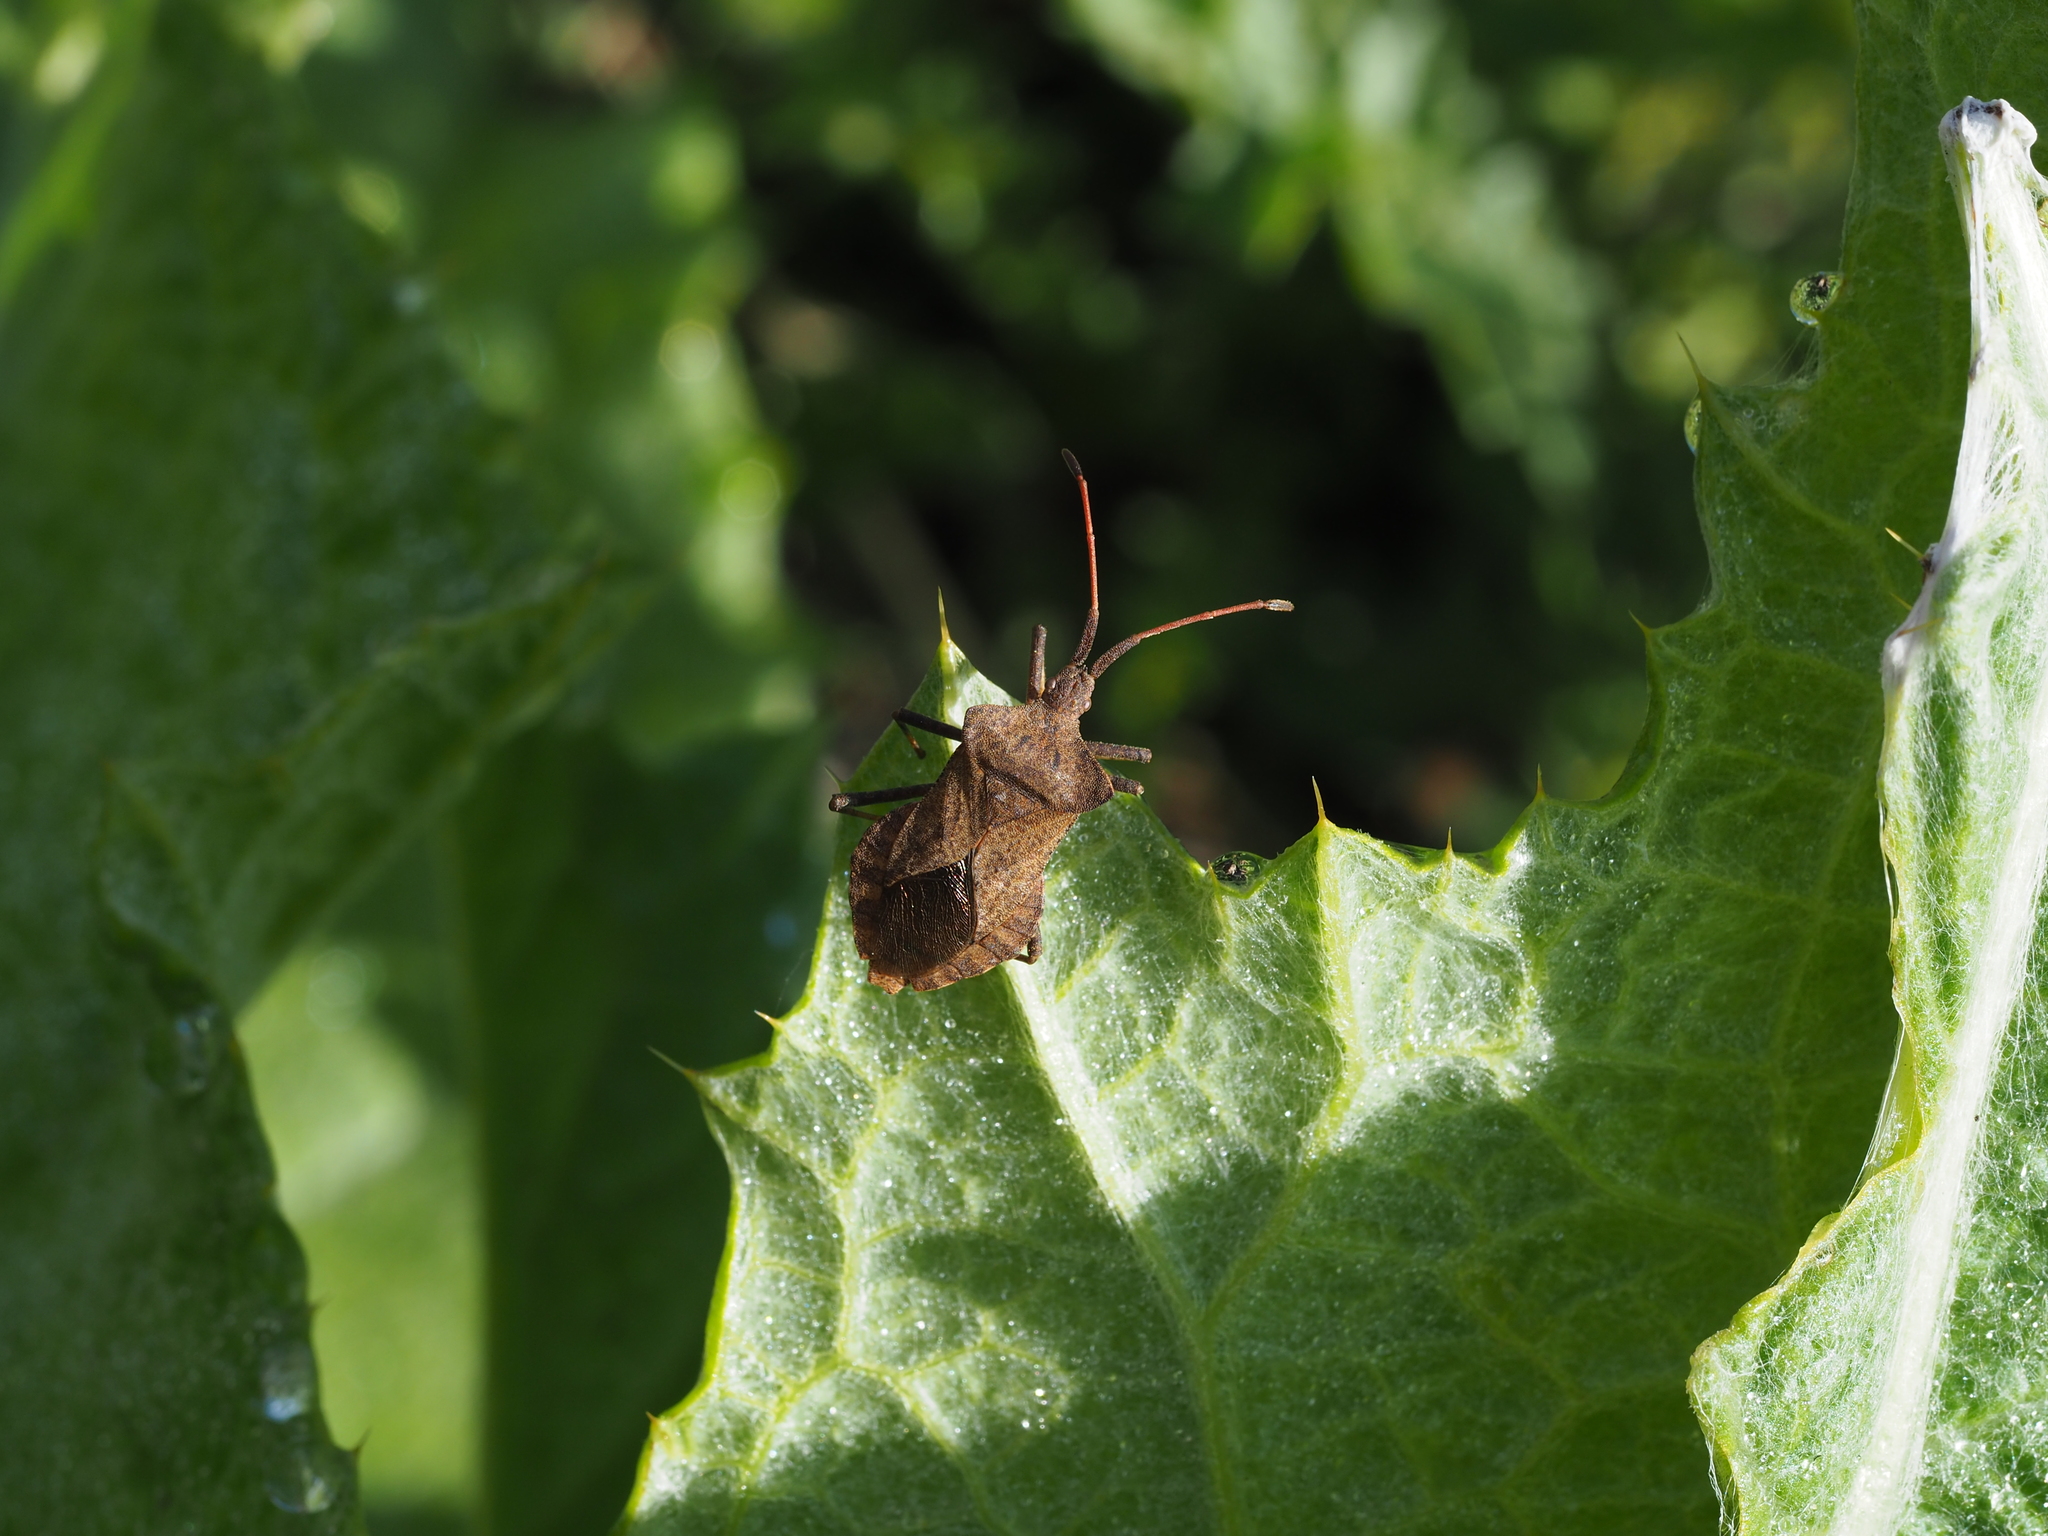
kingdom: Animalia
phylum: Arthropoda
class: Insecta
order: Hemiptera
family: Coreidae
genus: Coreus
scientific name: Coreus marginatus
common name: Dock bug
